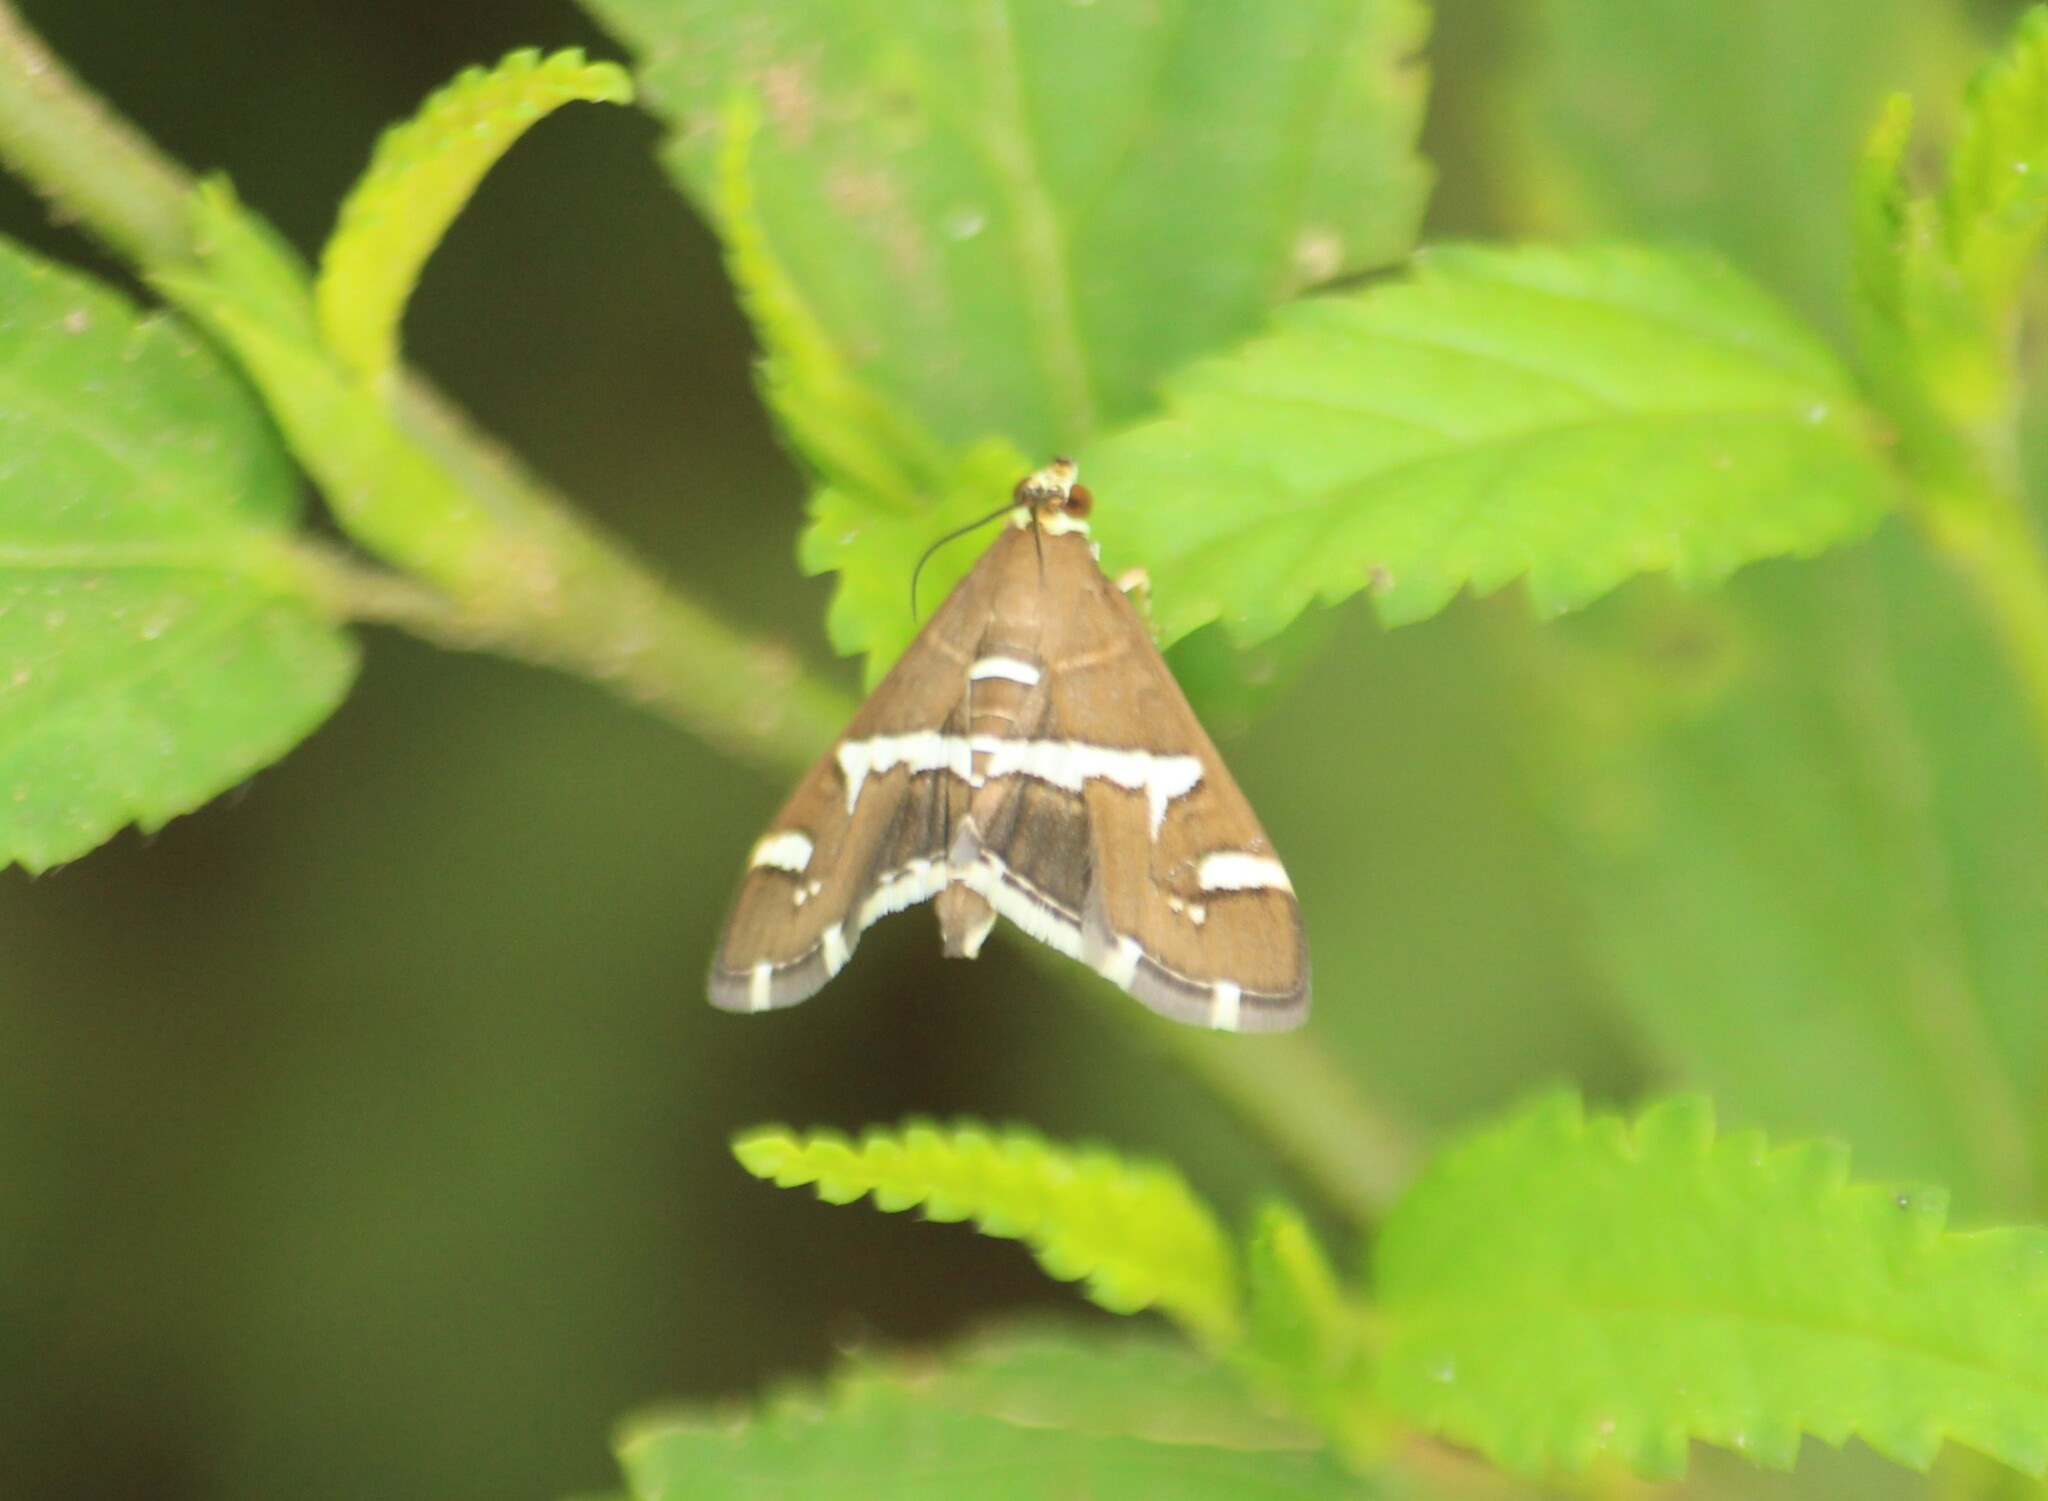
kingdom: Animalia
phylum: Arthropoda
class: Insecta
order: Lepidoptera
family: Crambidae
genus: Spoladea
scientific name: Spoladea recurvalis
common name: Beet webworm moth
